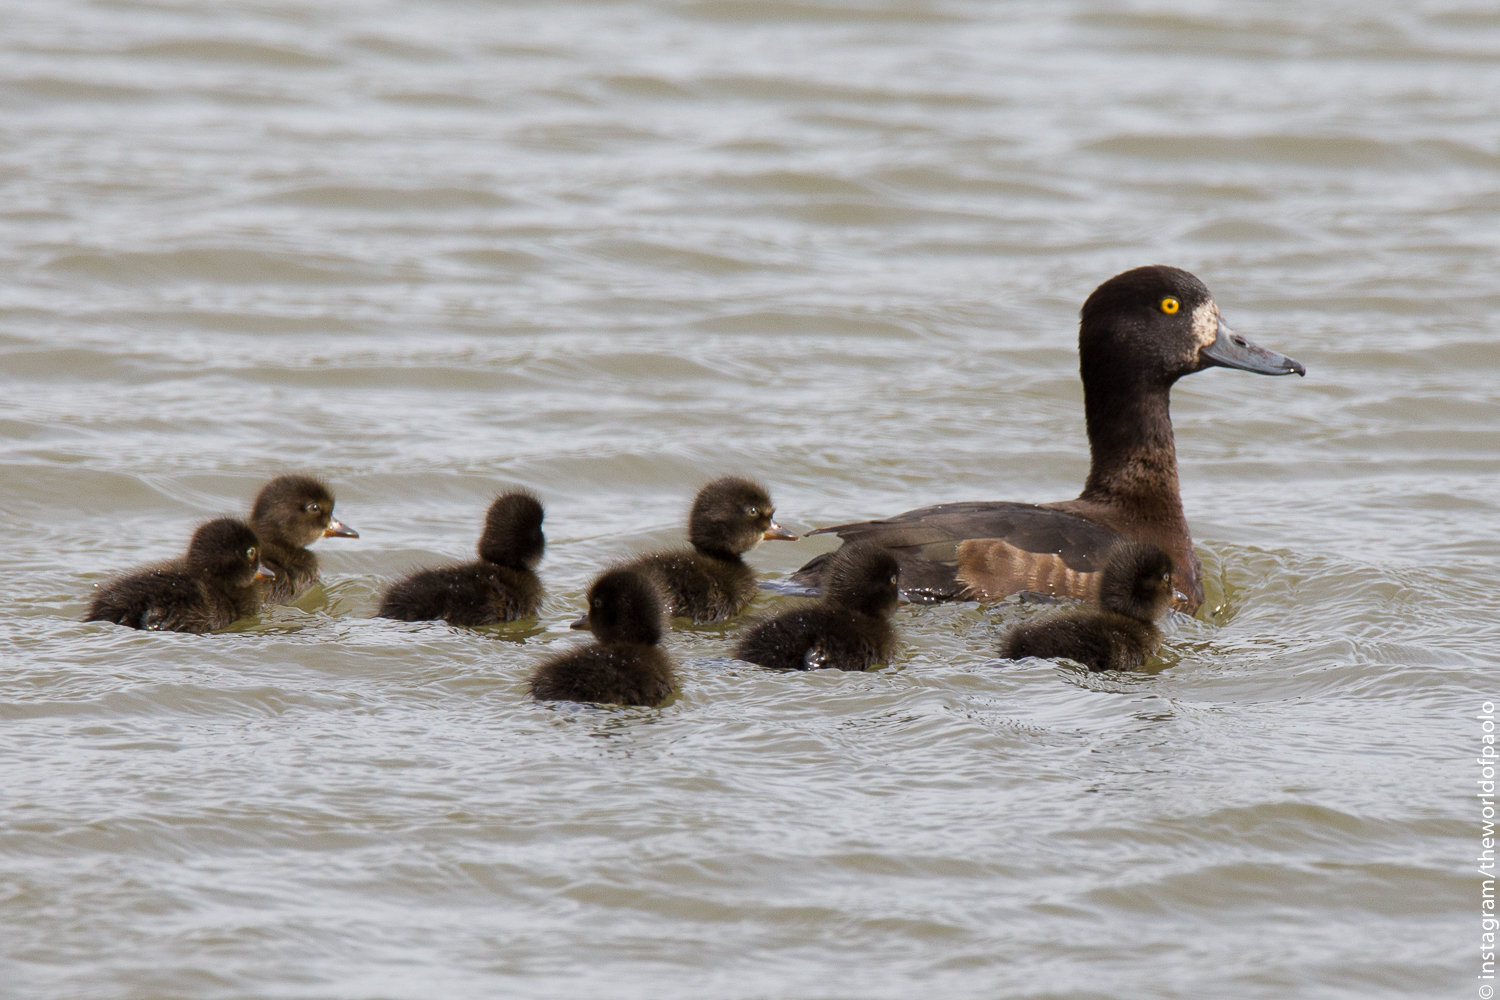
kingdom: Animalia
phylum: Chordata
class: Aves
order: Anseriformes
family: Anatidae
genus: Aythya
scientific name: Aythya fuligula
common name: Tufted duck
